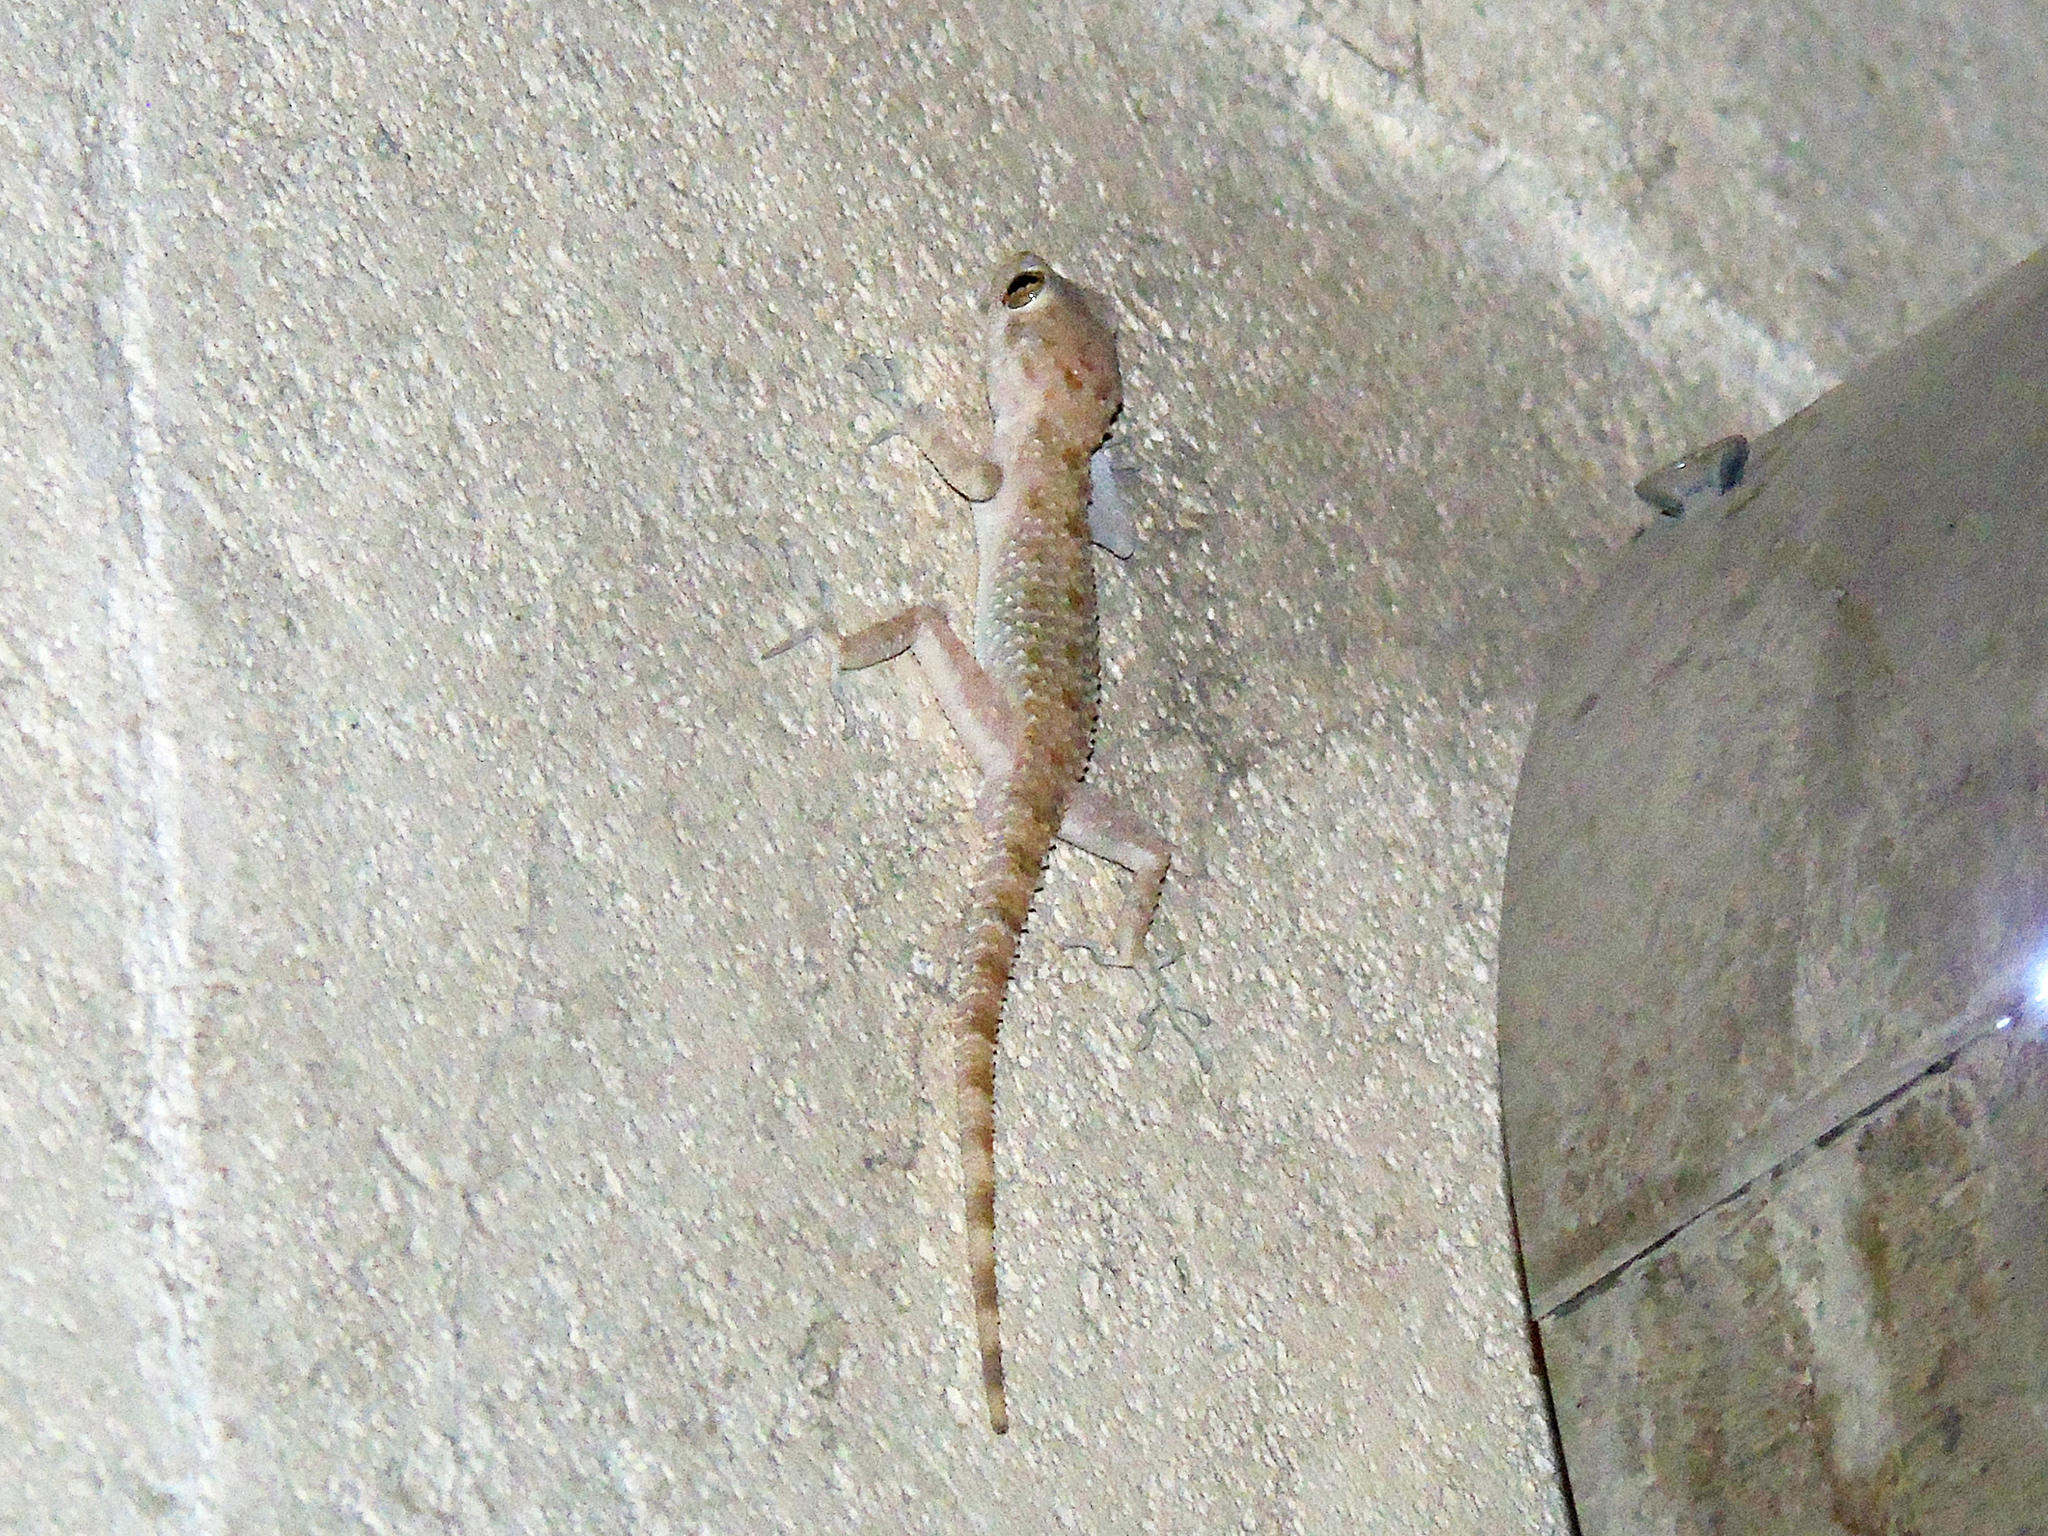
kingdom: Animalia
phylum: Chordata
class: Squamata
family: Gekkonidae
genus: Cyrtopodion
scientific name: Cyrtopodion scabrum
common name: Rough-tailed gecko
